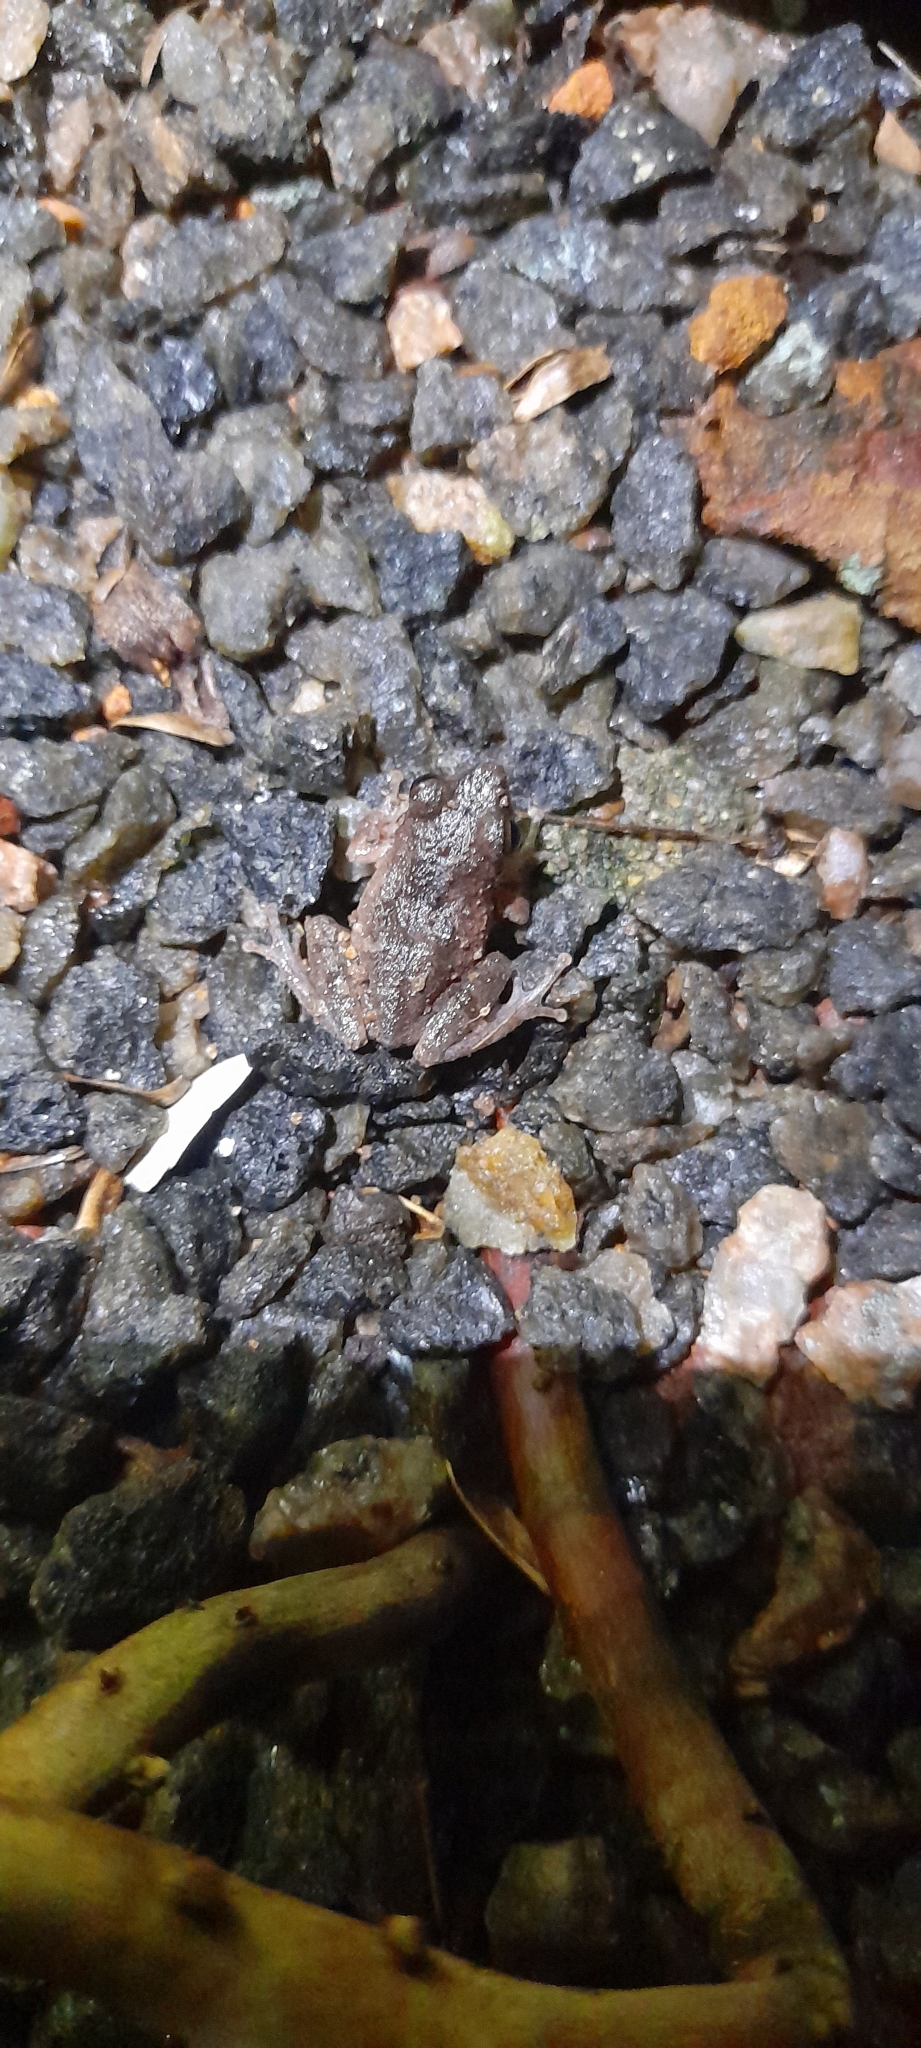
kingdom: Animalia
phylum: Chordata
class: Amphibia
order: Anura
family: Rhacophoridae
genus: Pseudophilautus
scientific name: Pseudophilautus wynaadensis
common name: Dark-eared bush frog
